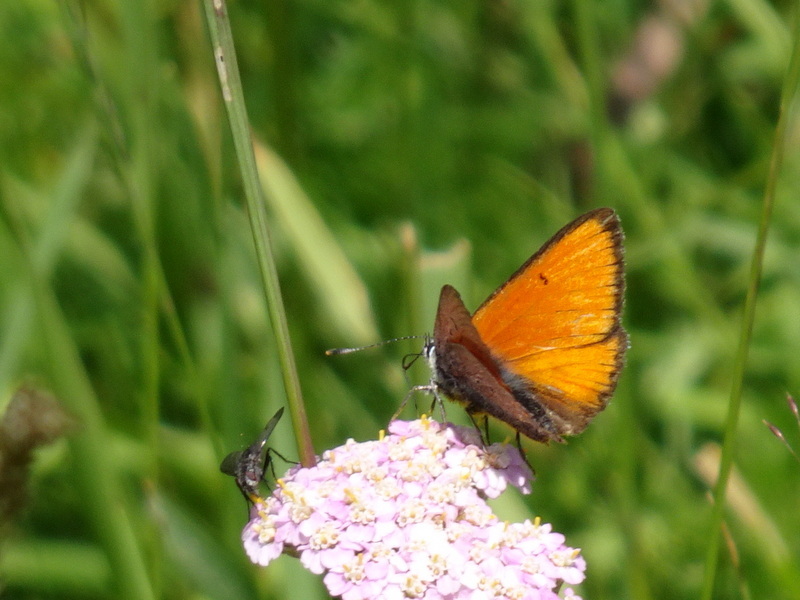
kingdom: Animalia
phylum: Arthropoda
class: Insecta
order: Lepidoptera
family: Lycaenidae
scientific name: Lycaenidae
